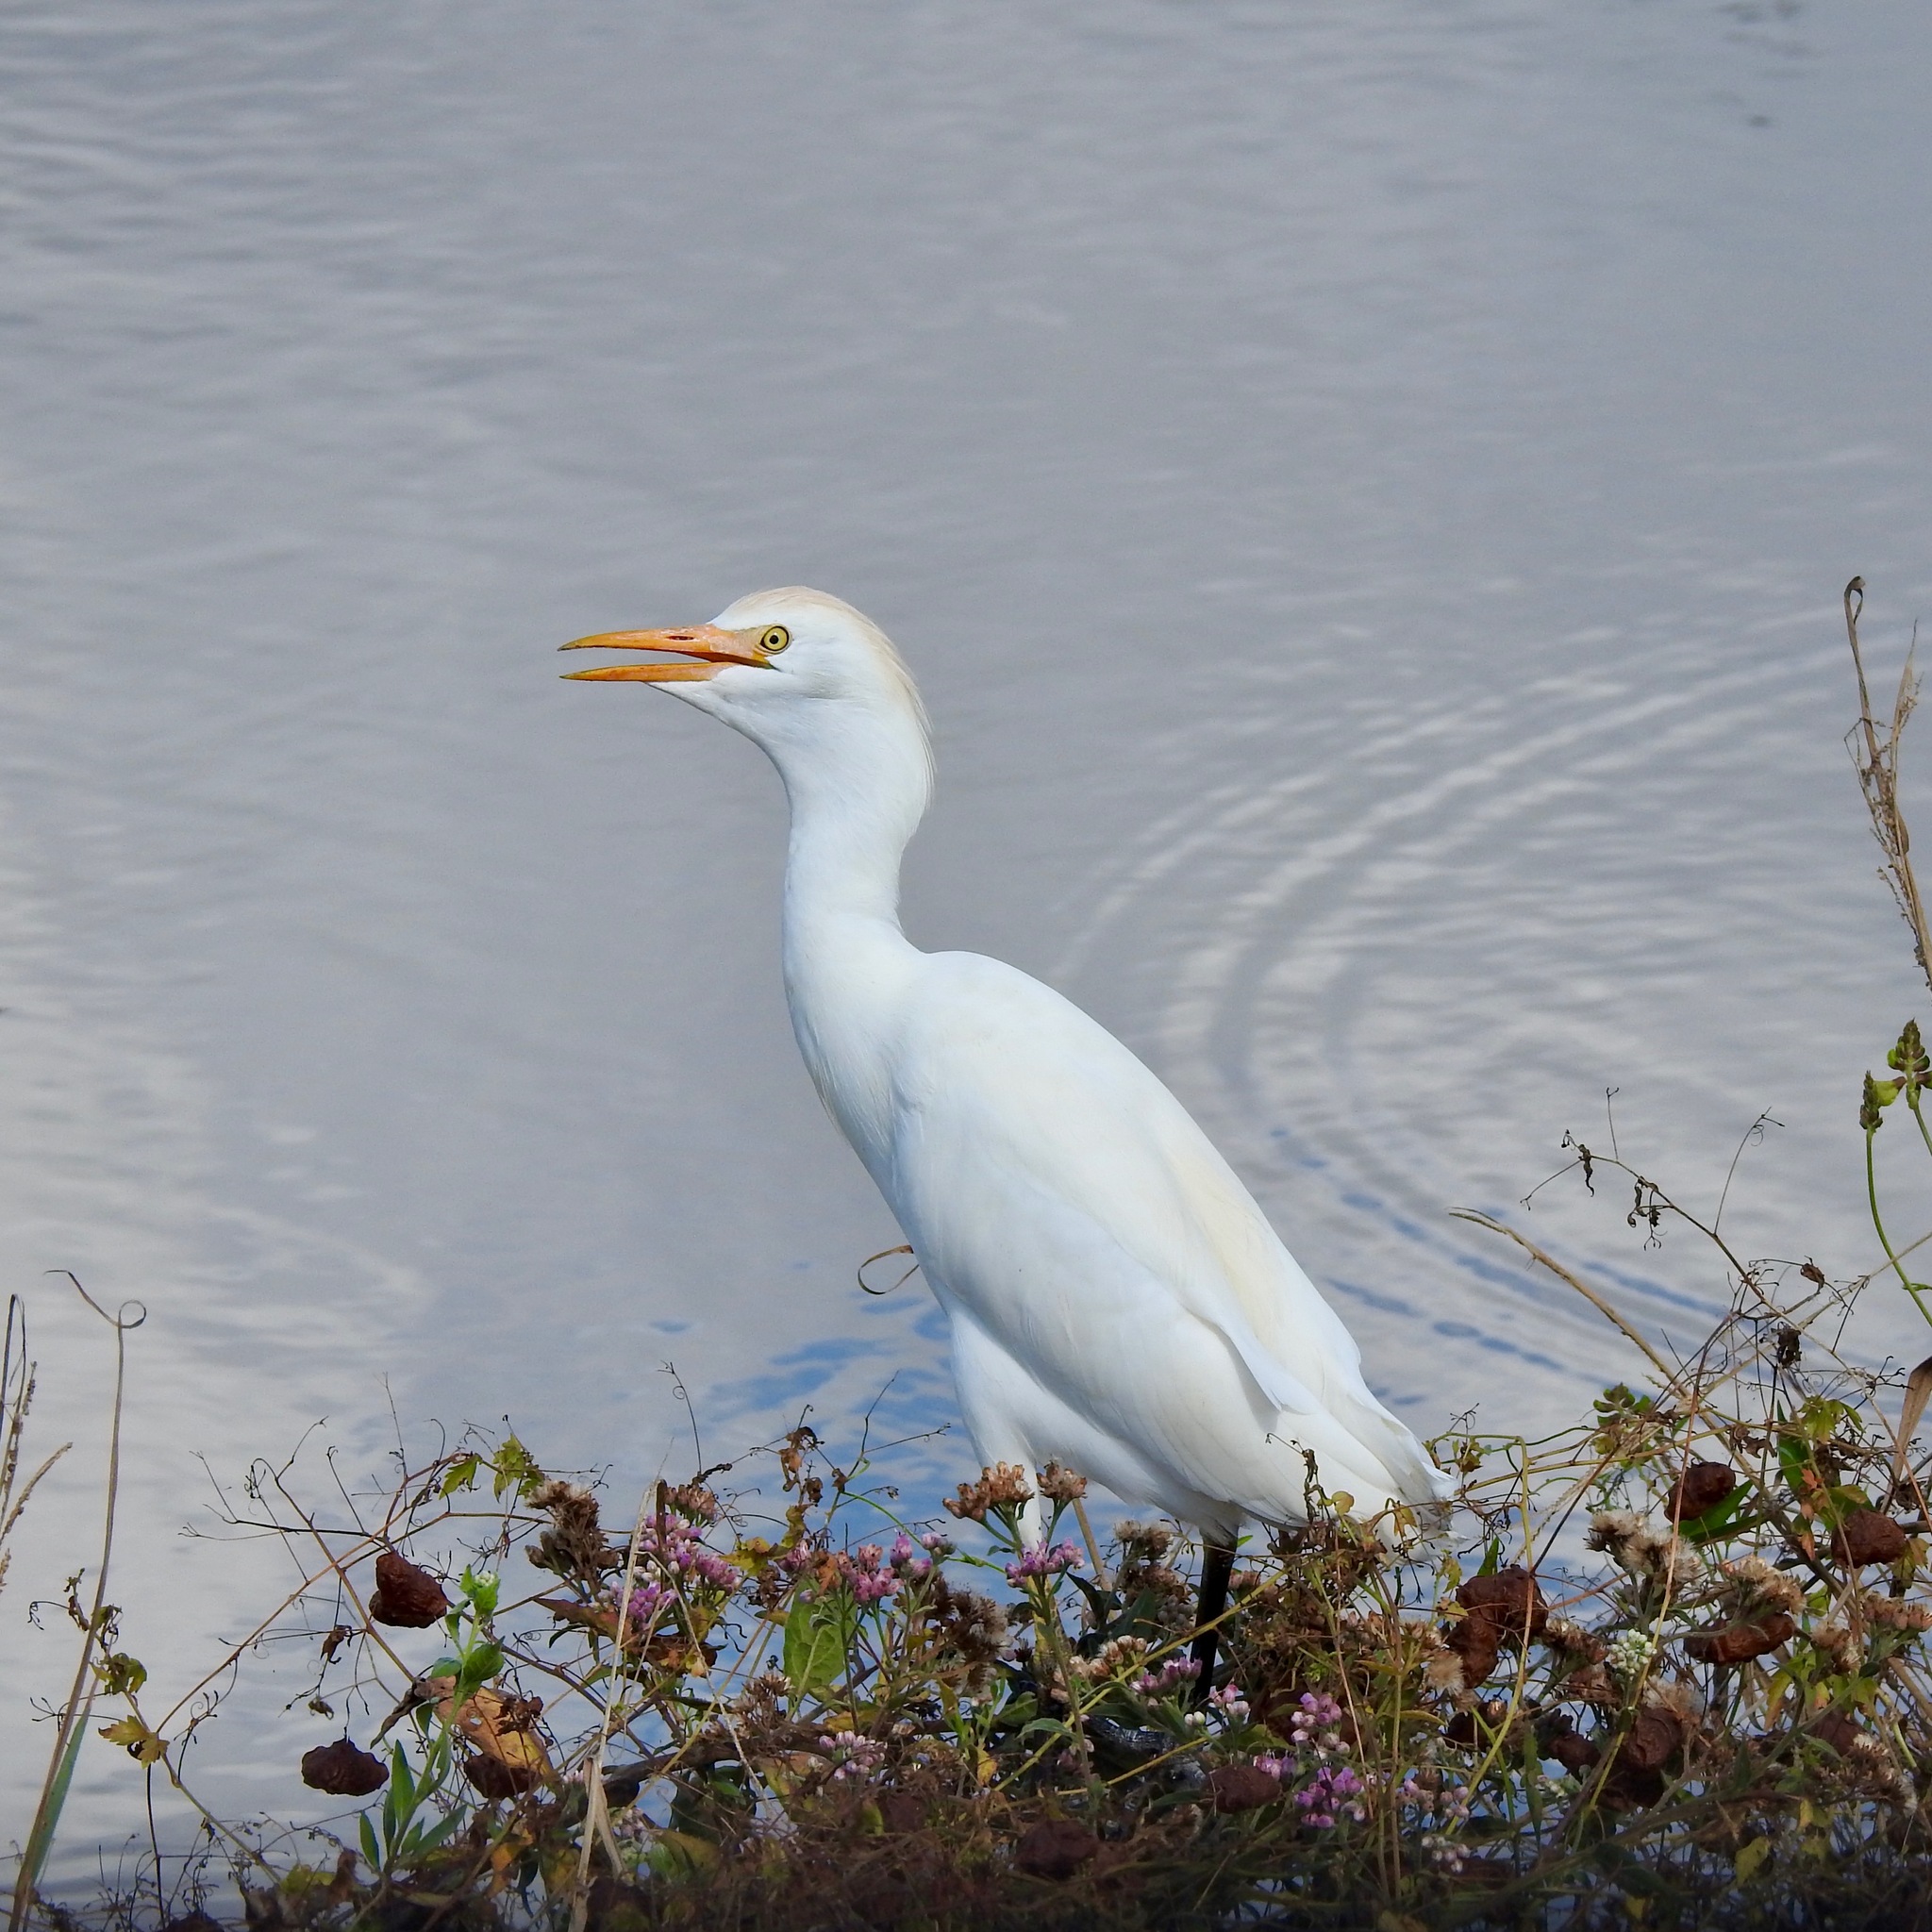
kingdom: Animalia
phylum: Chordata
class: Aves
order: Pelecaniformes
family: Ardeidae
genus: Bubulcus
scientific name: Bubulcus ibis
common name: Cattle egret
